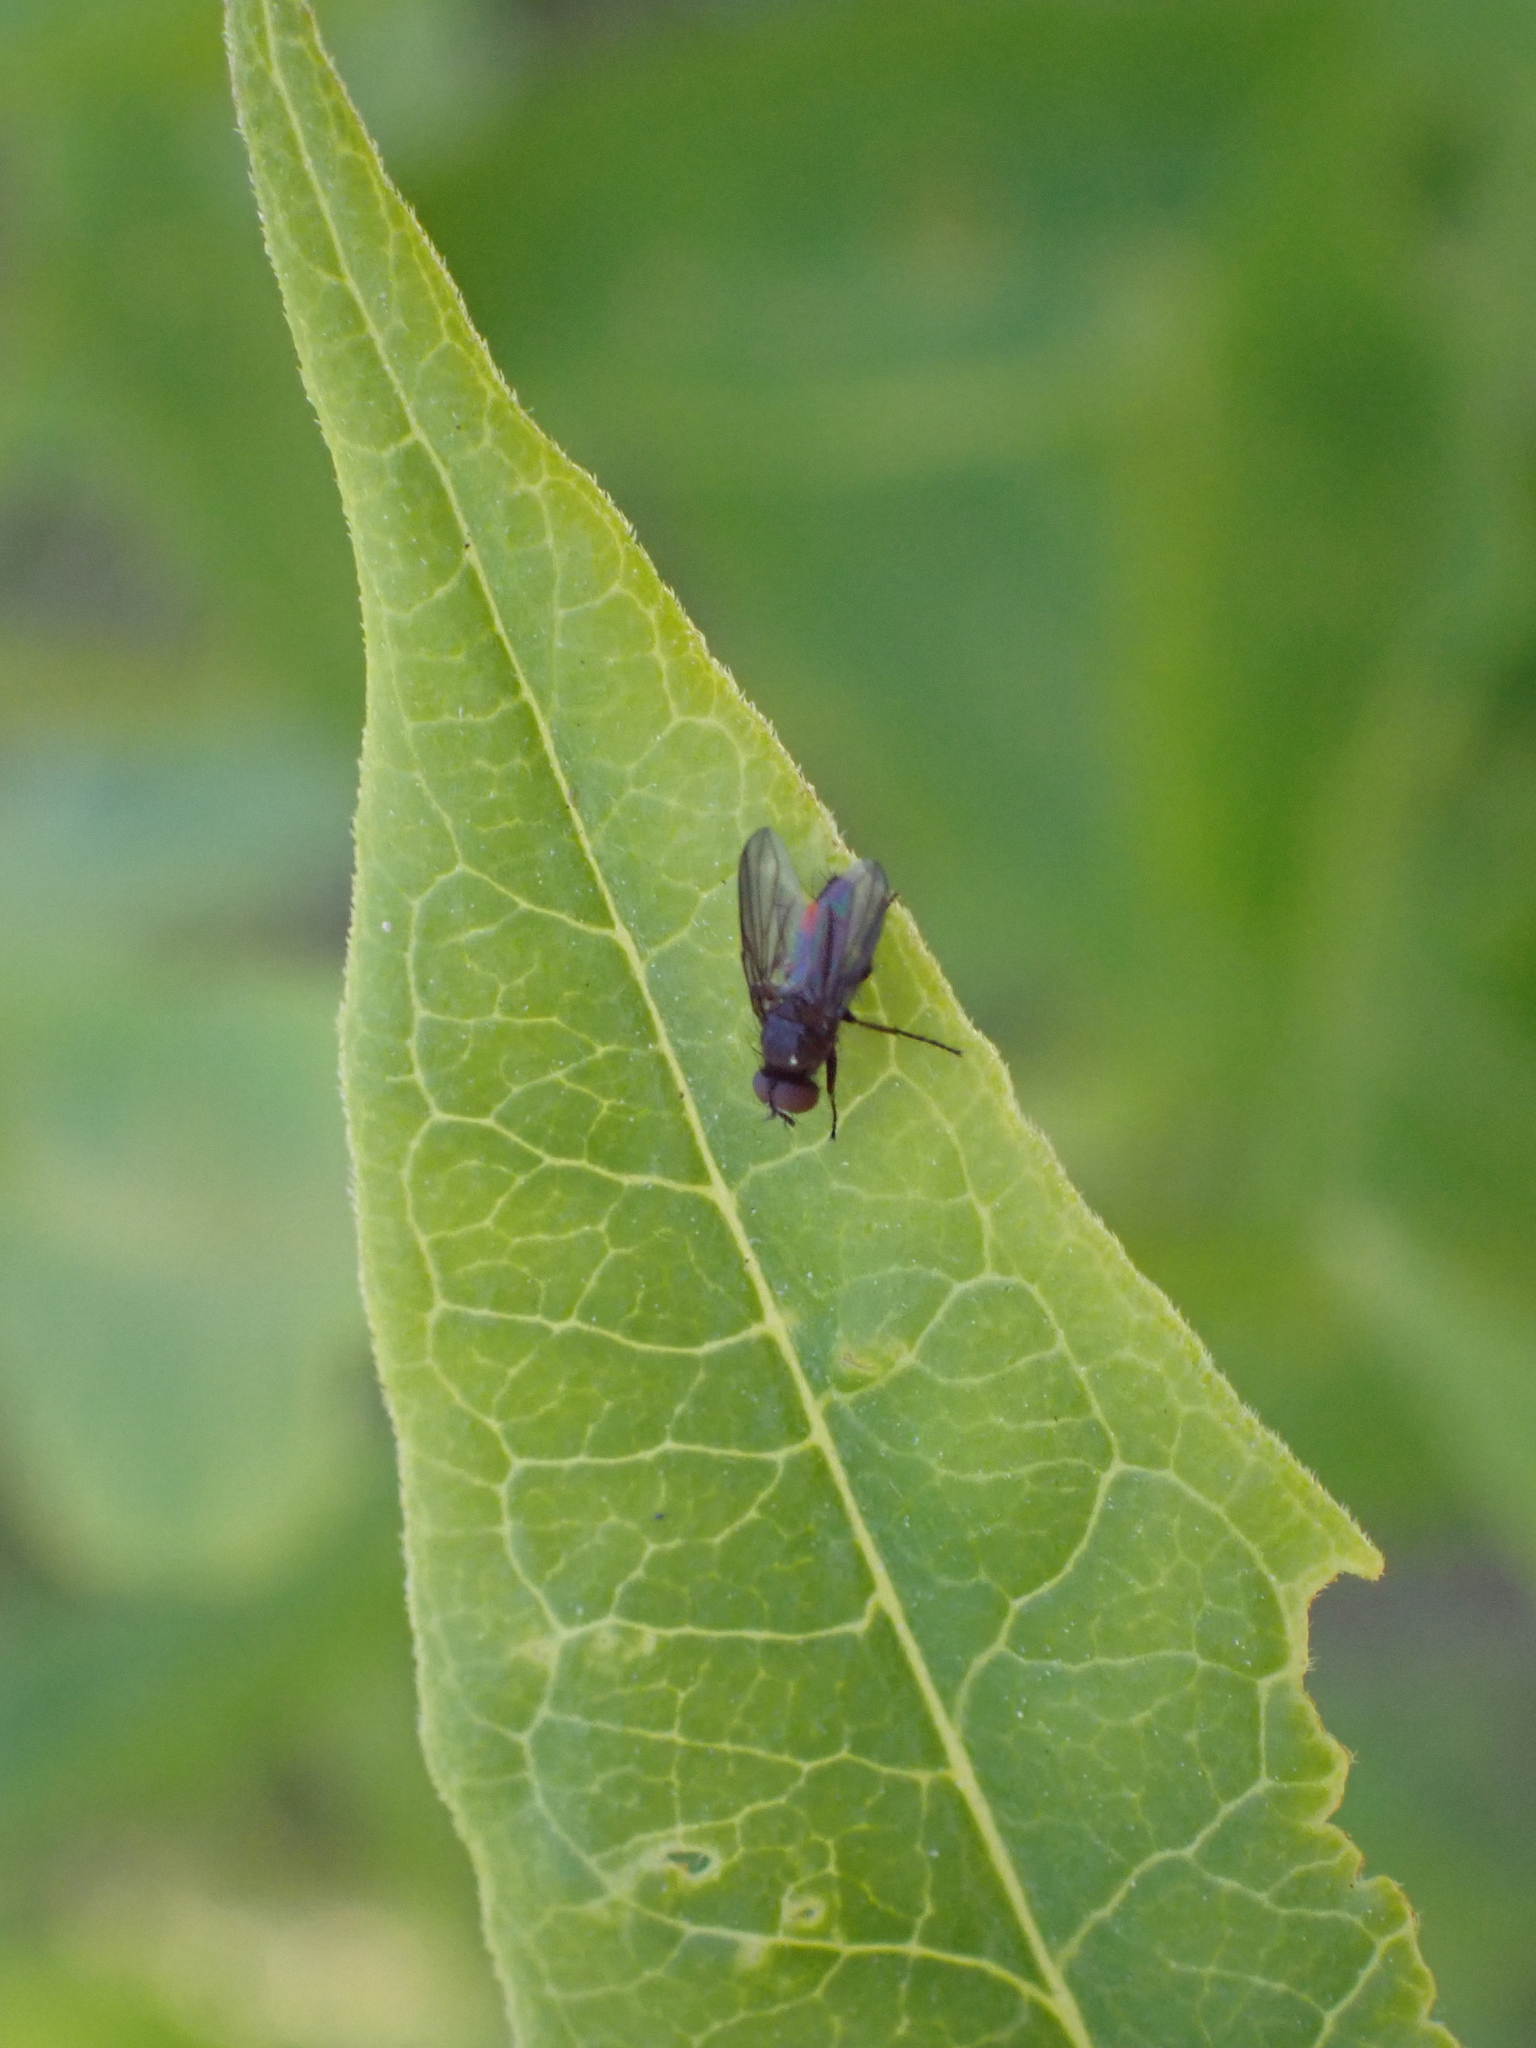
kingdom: Animalia
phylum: Arthropoda
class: Insecta
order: Diptera
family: Calliphoridae
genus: Melanomya
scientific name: Melanomya nana
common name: Little black blowfly
